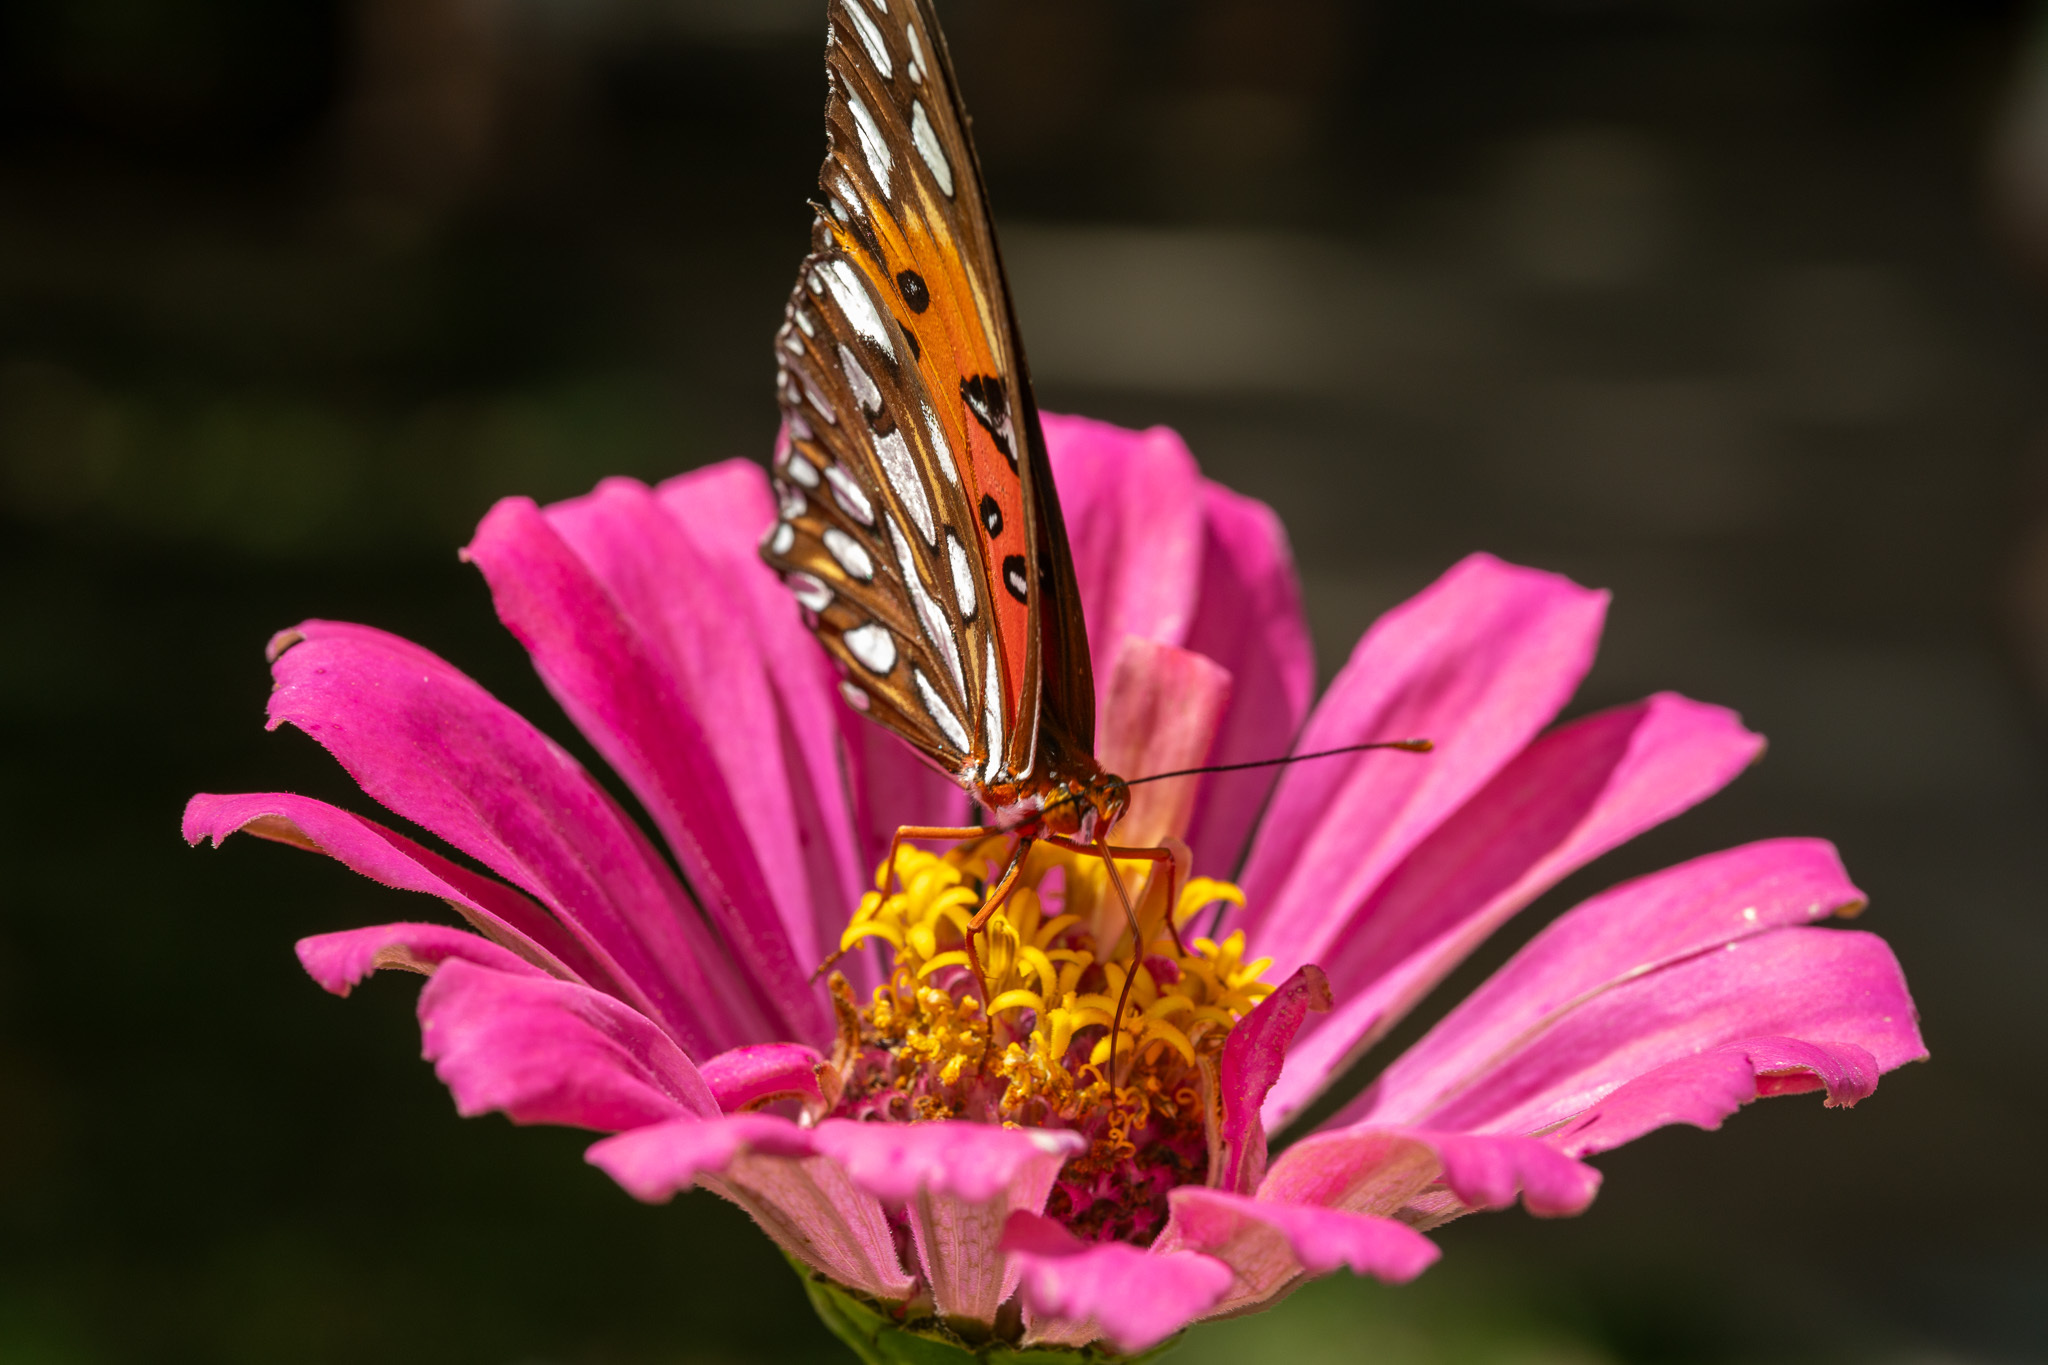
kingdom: Animalia
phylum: Arthropoda
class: Insecta
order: Lepidoptera
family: Nymphalidae
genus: Dione
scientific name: Dione vanillae
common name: Gulf fritillary
